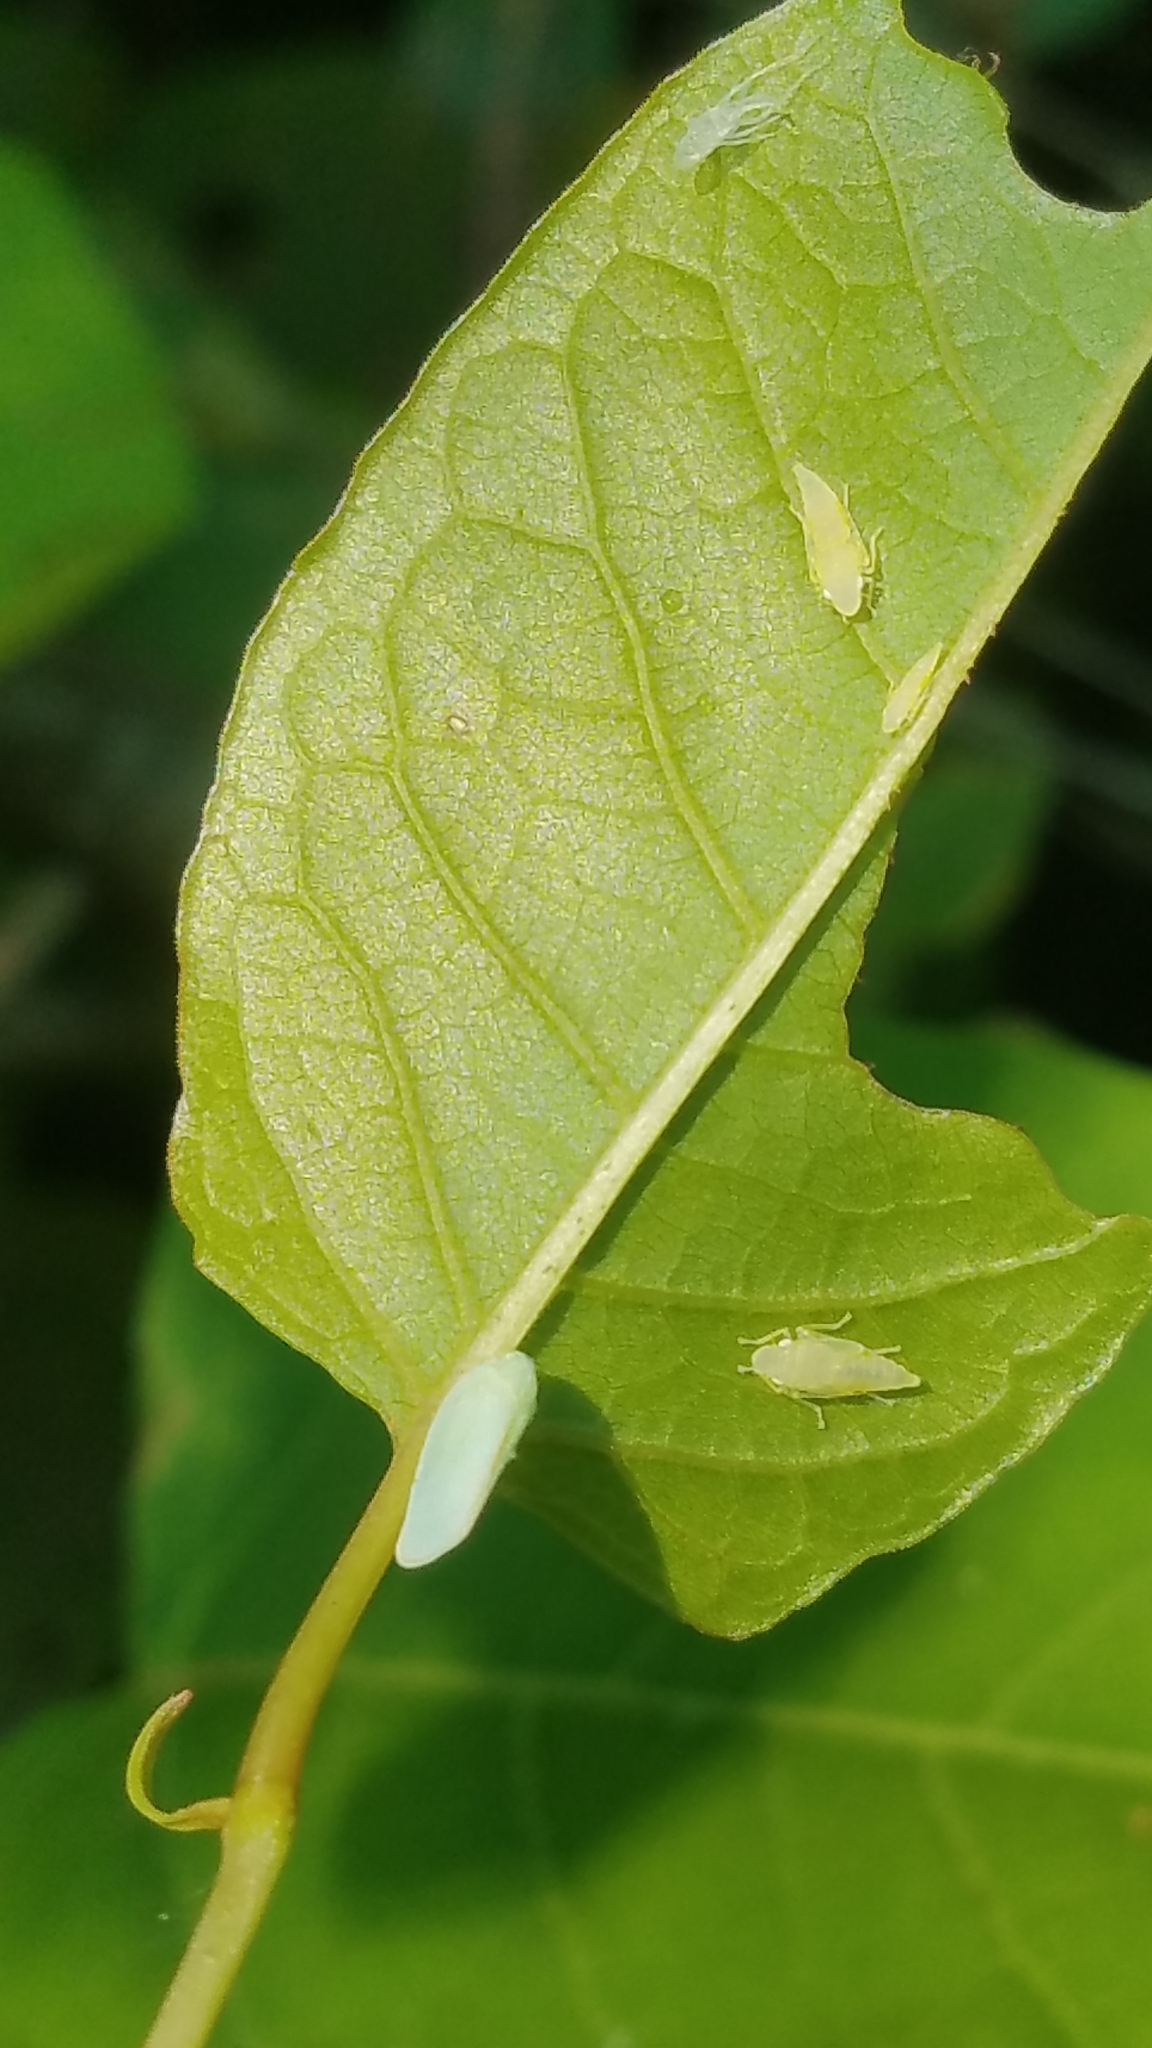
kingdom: Animalia
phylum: Arthropoda
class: Insecta
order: Hemiptera
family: Flatidae
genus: Ormenoides
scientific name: Ormenoides venusta
